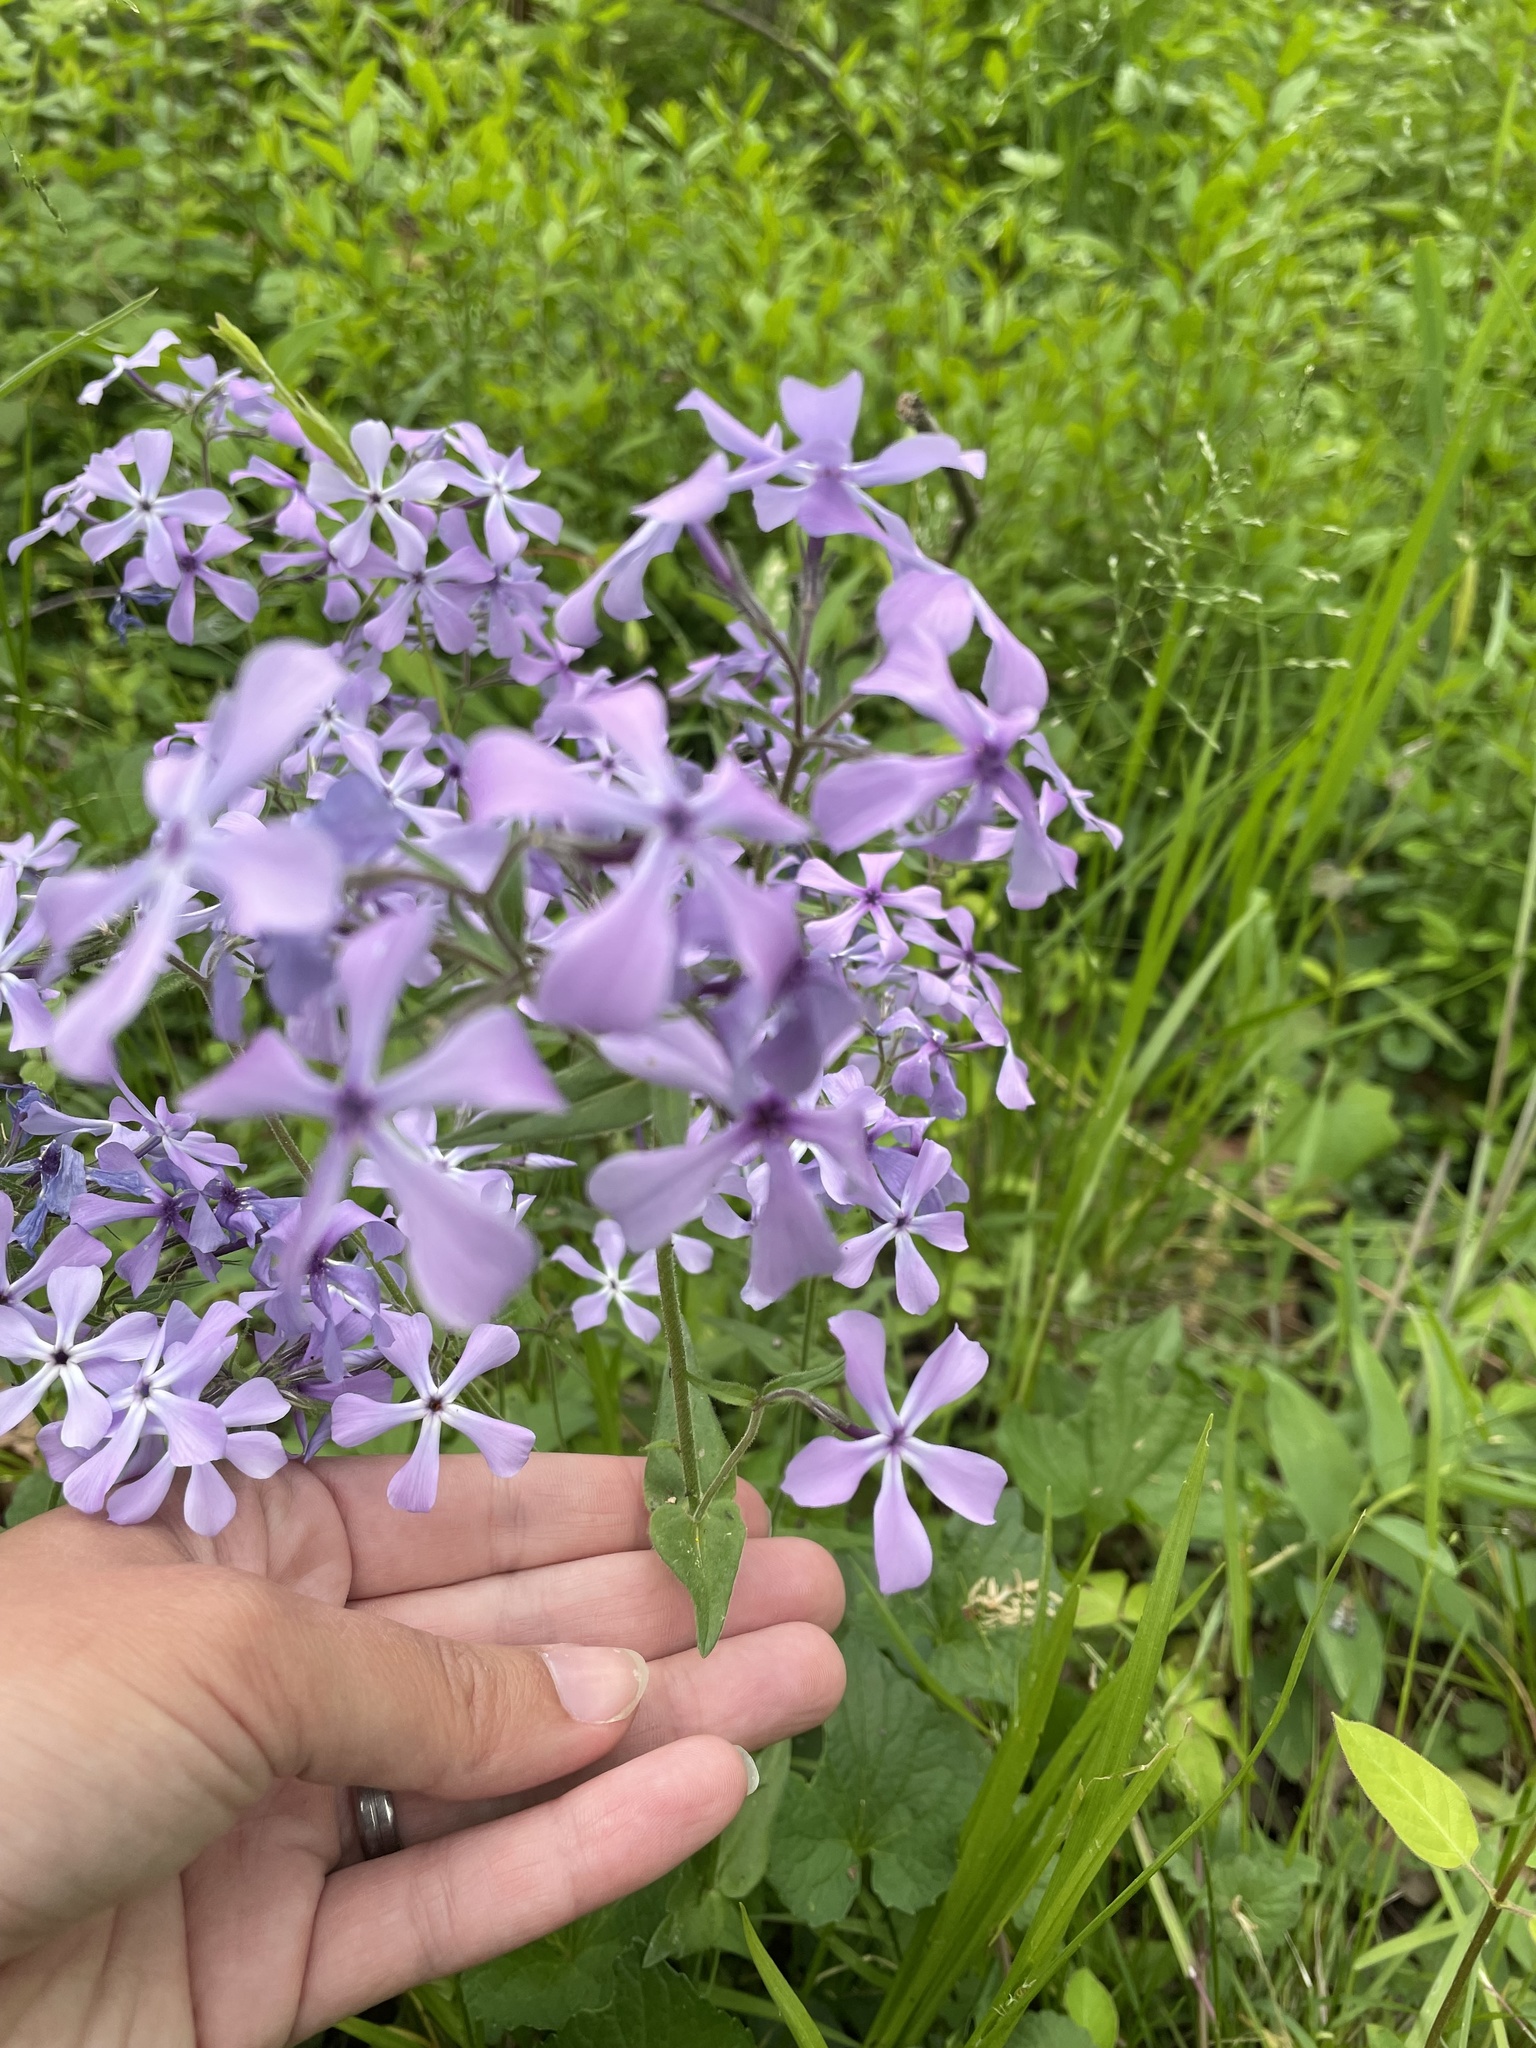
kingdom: Plantae
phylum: Tracheophyta
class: Magnoliopsida
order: Ericales
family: Polemoniaceae
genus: Phlox
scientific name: Phlox divaricata
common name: Blue phlox
